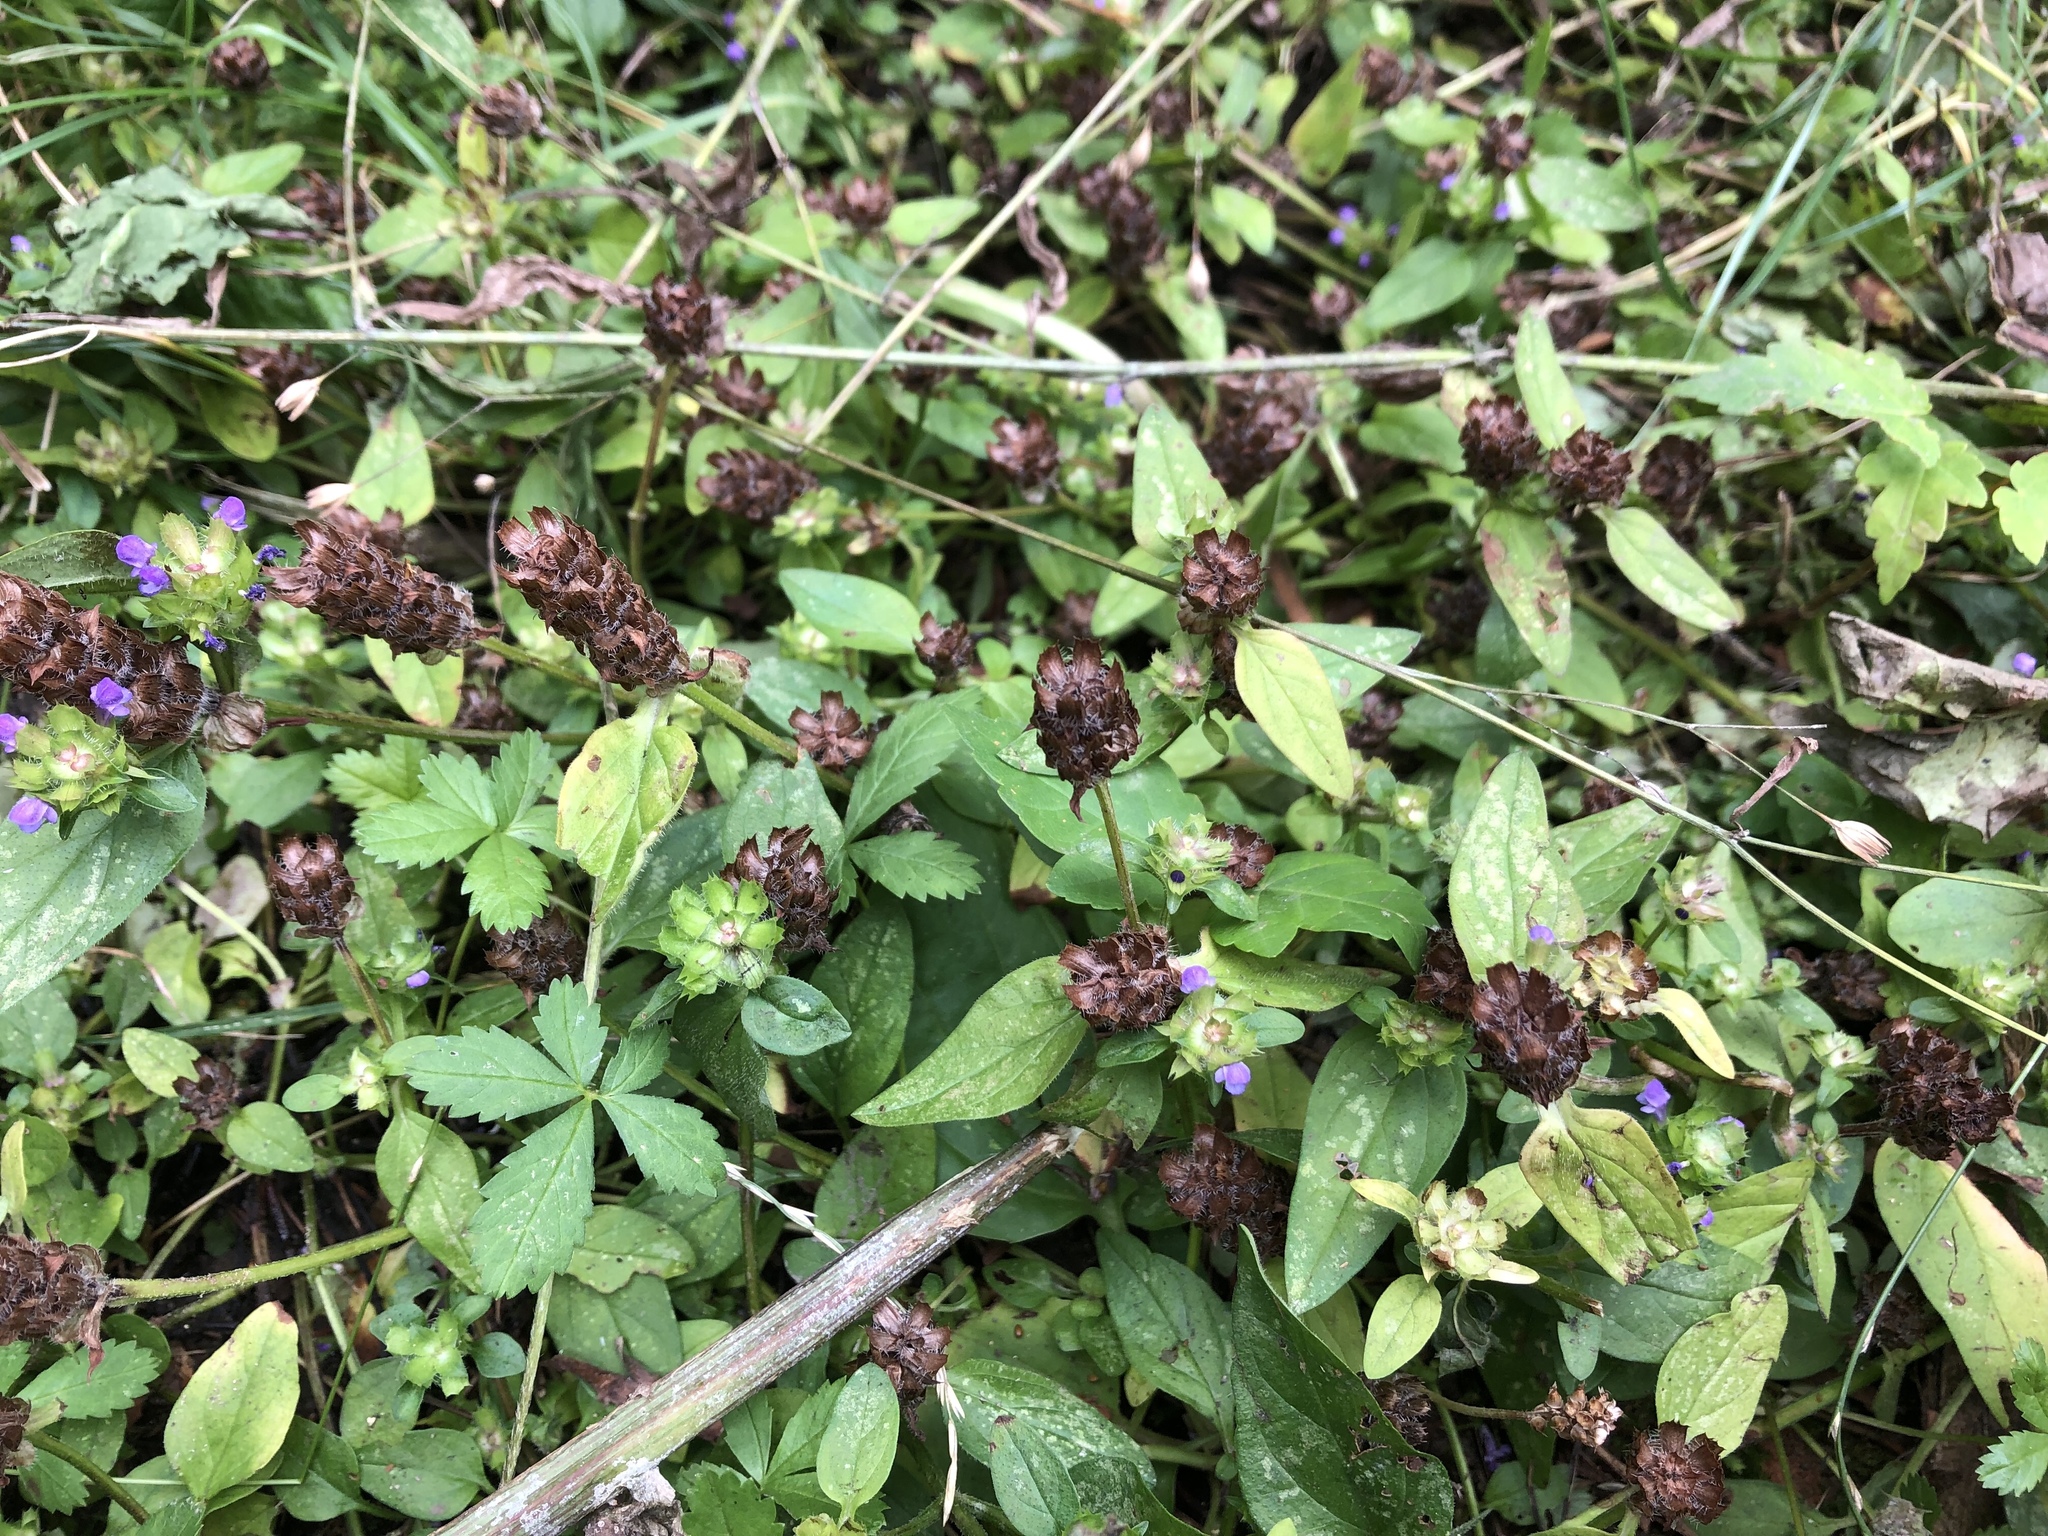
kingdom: Plantae
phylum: Tracheophyta
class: Magnoliopsida
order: Lamiales
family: Lamiaceae
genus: Prunella
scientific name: Prunella vulgaris
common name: Heal-all
